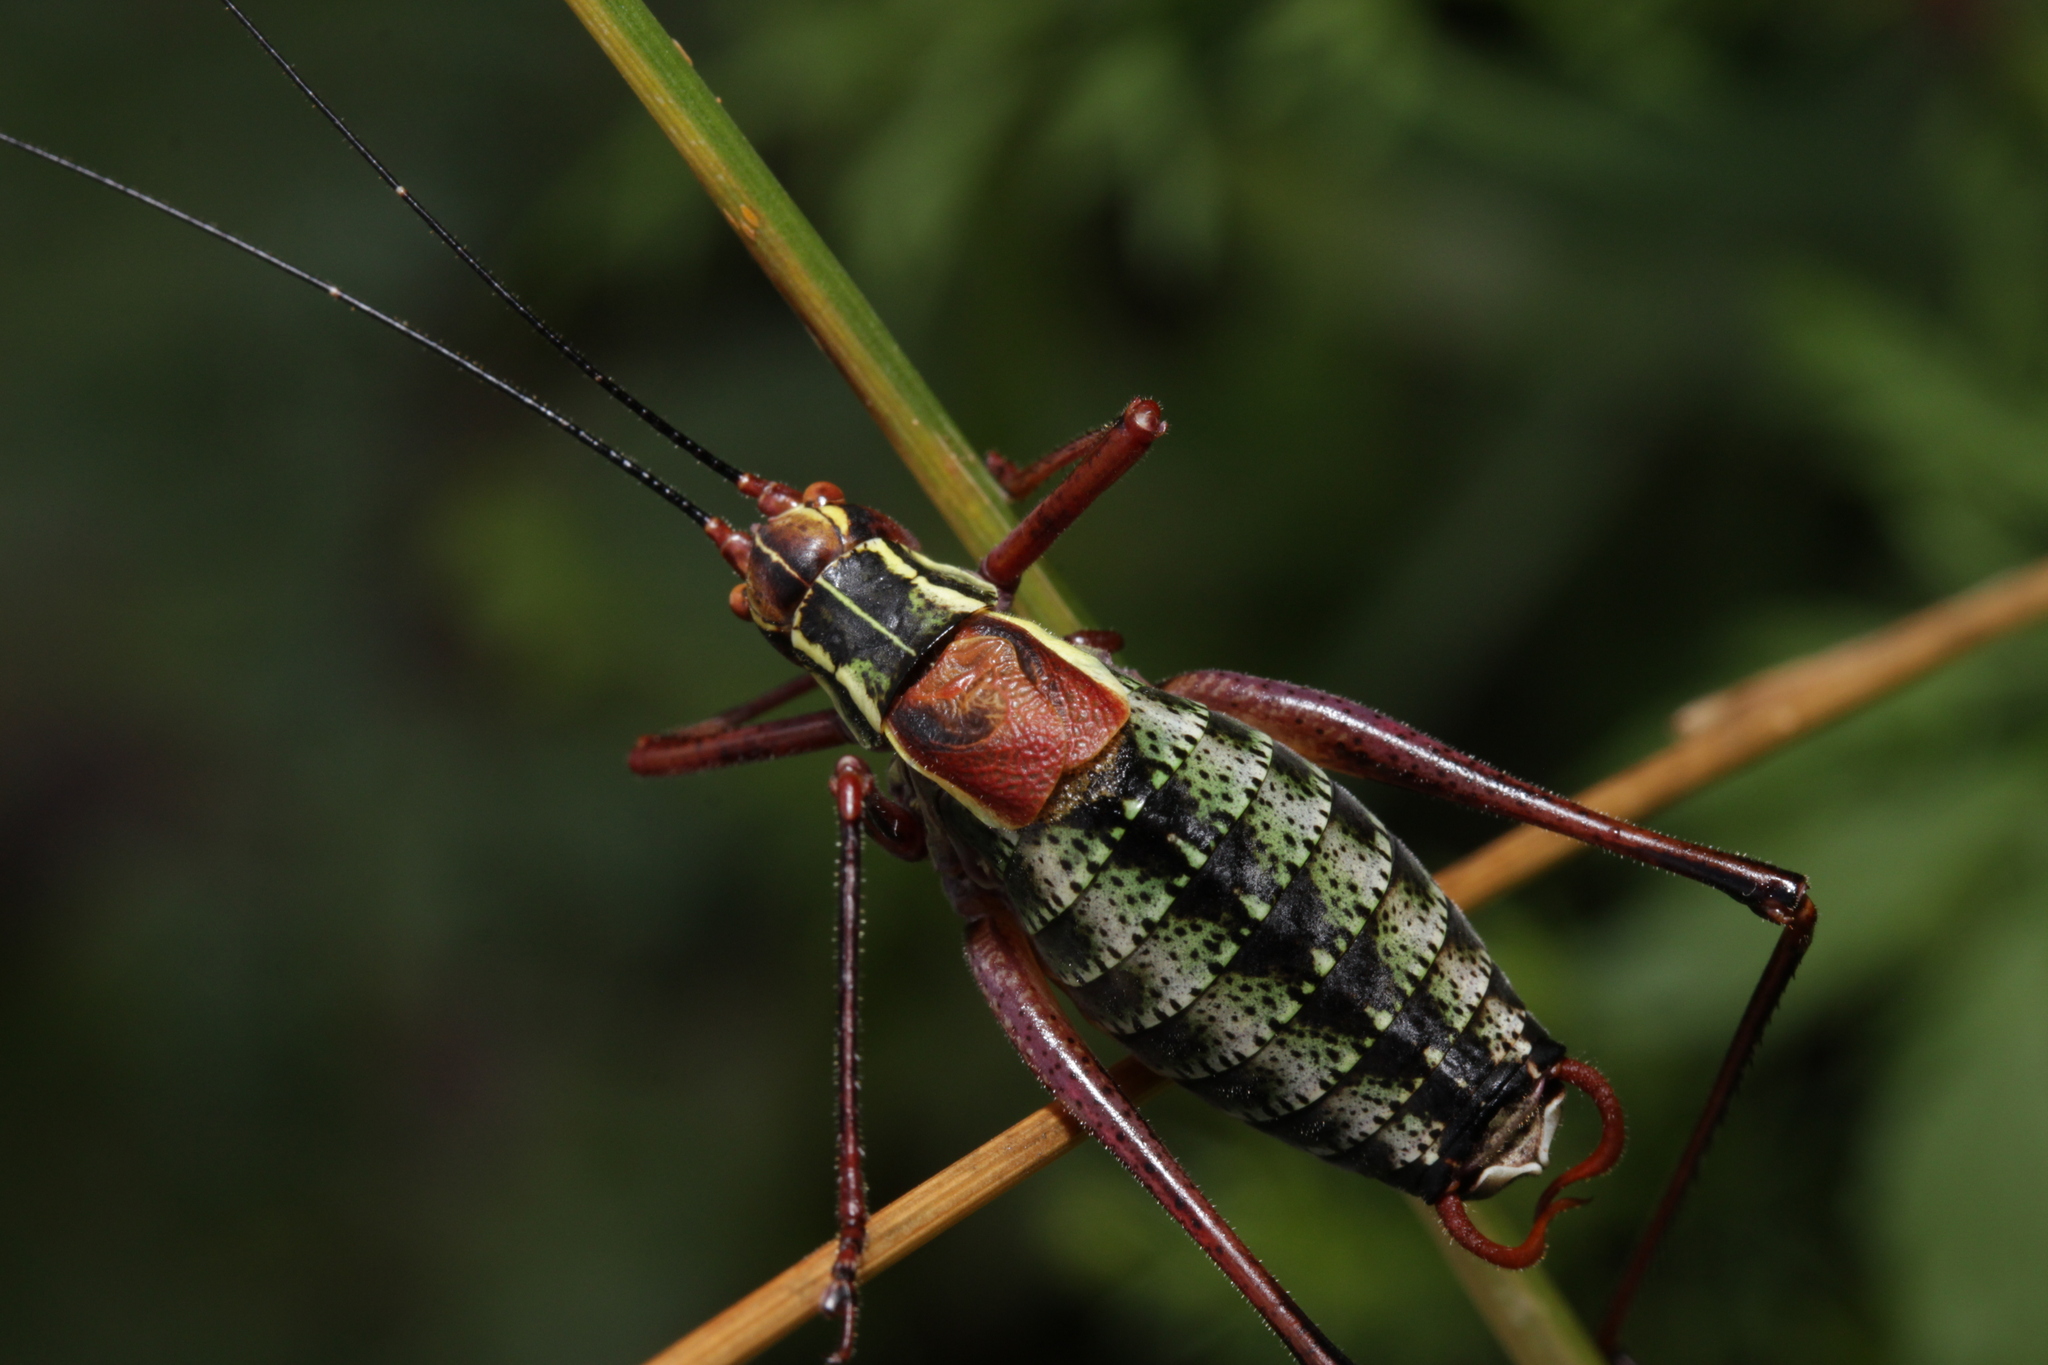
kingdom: Animalia
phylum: Arthropoda
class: Insecta
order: Orthoptera
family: Tettigoniidae
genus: Barbitistes
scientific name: Barbitistes serricauda
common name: Saw-tailed bush-cricket
